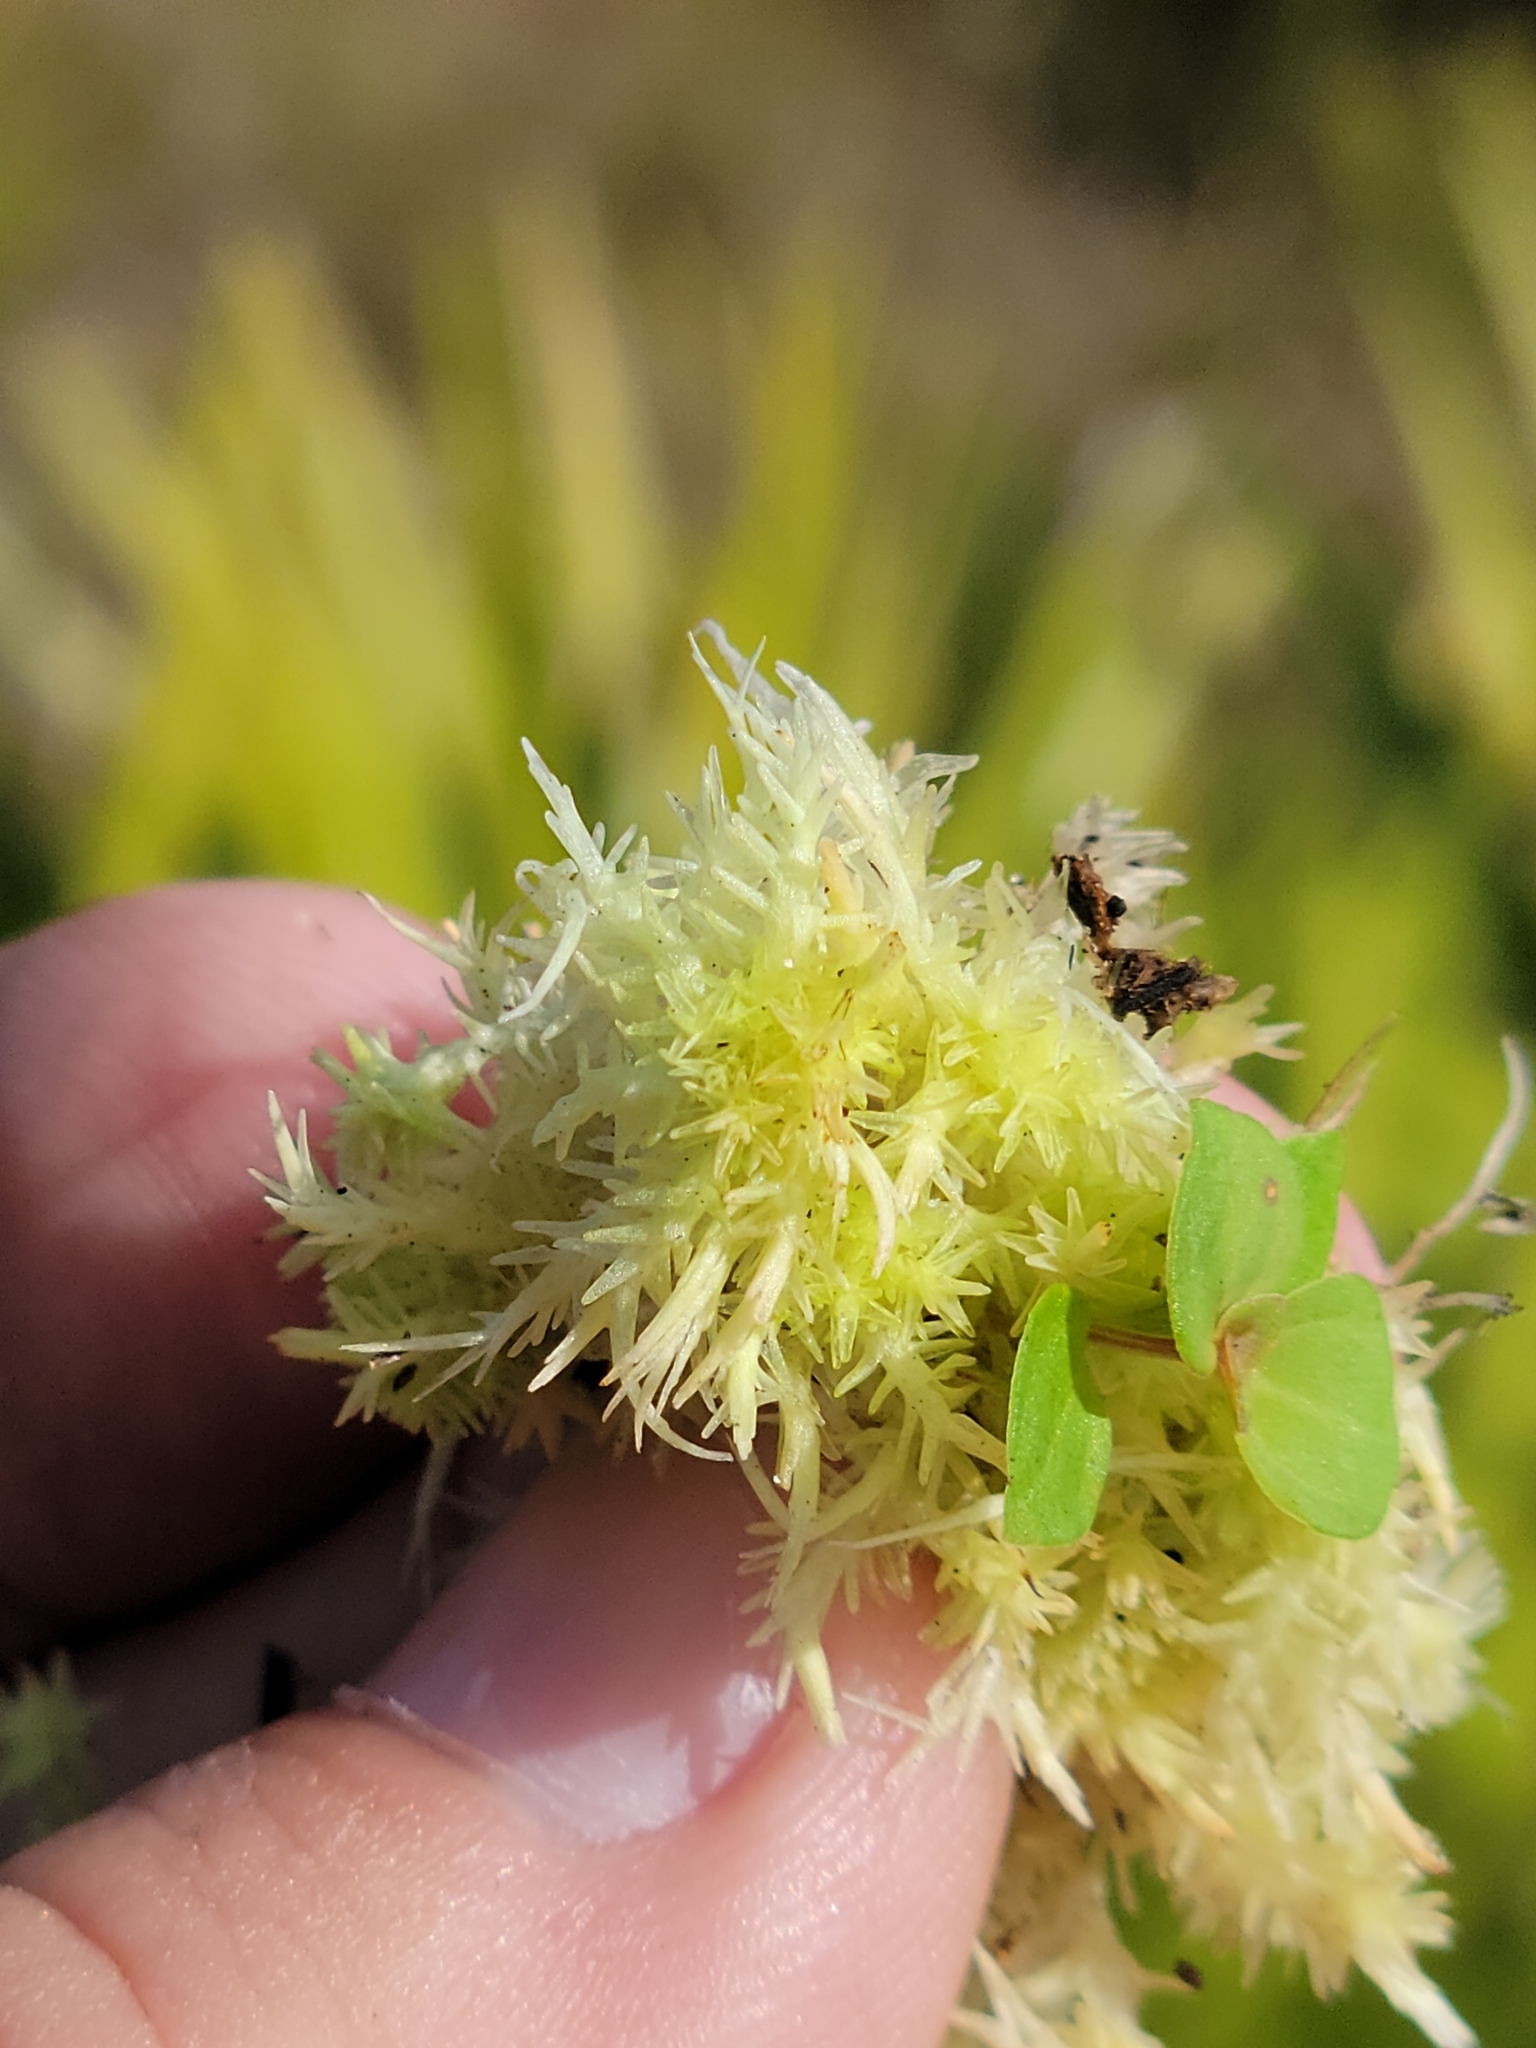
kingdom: Plantae
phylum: Bryophyta
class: Sphagnopsida
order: Sphagnales
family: Sphagnaceae
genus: Sphagnum
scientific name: Sphagnum strictum
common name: Pale bog-moss
